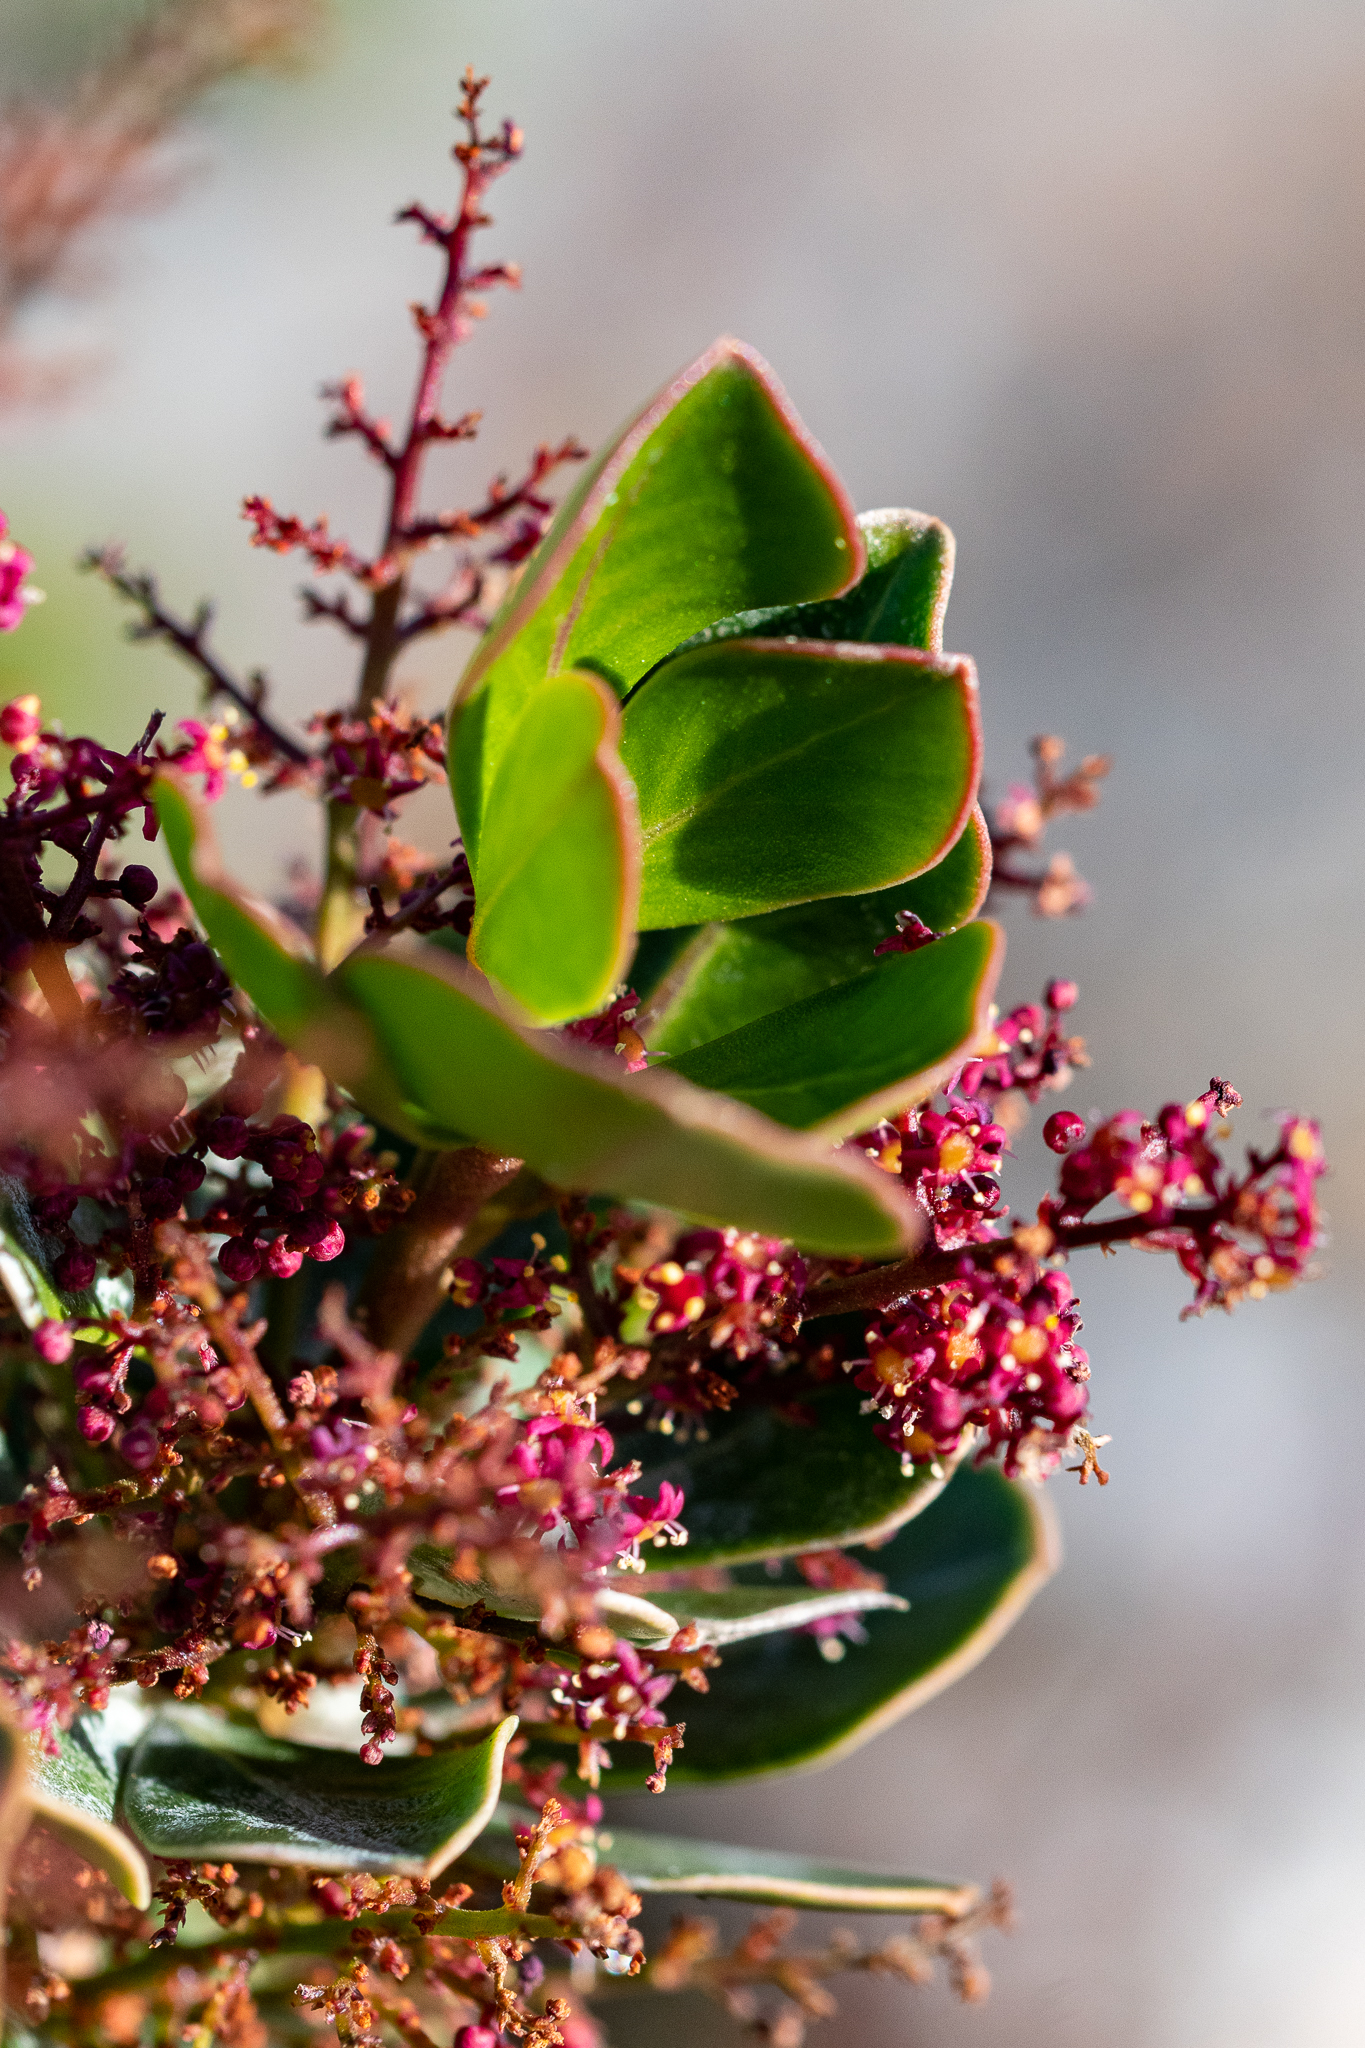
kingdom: Plantae
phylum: Tracheophyta
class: Magnoliopsida
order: Sapindales
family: Anacardiaceae
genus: Searsia
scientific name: Searsia scytophylla
